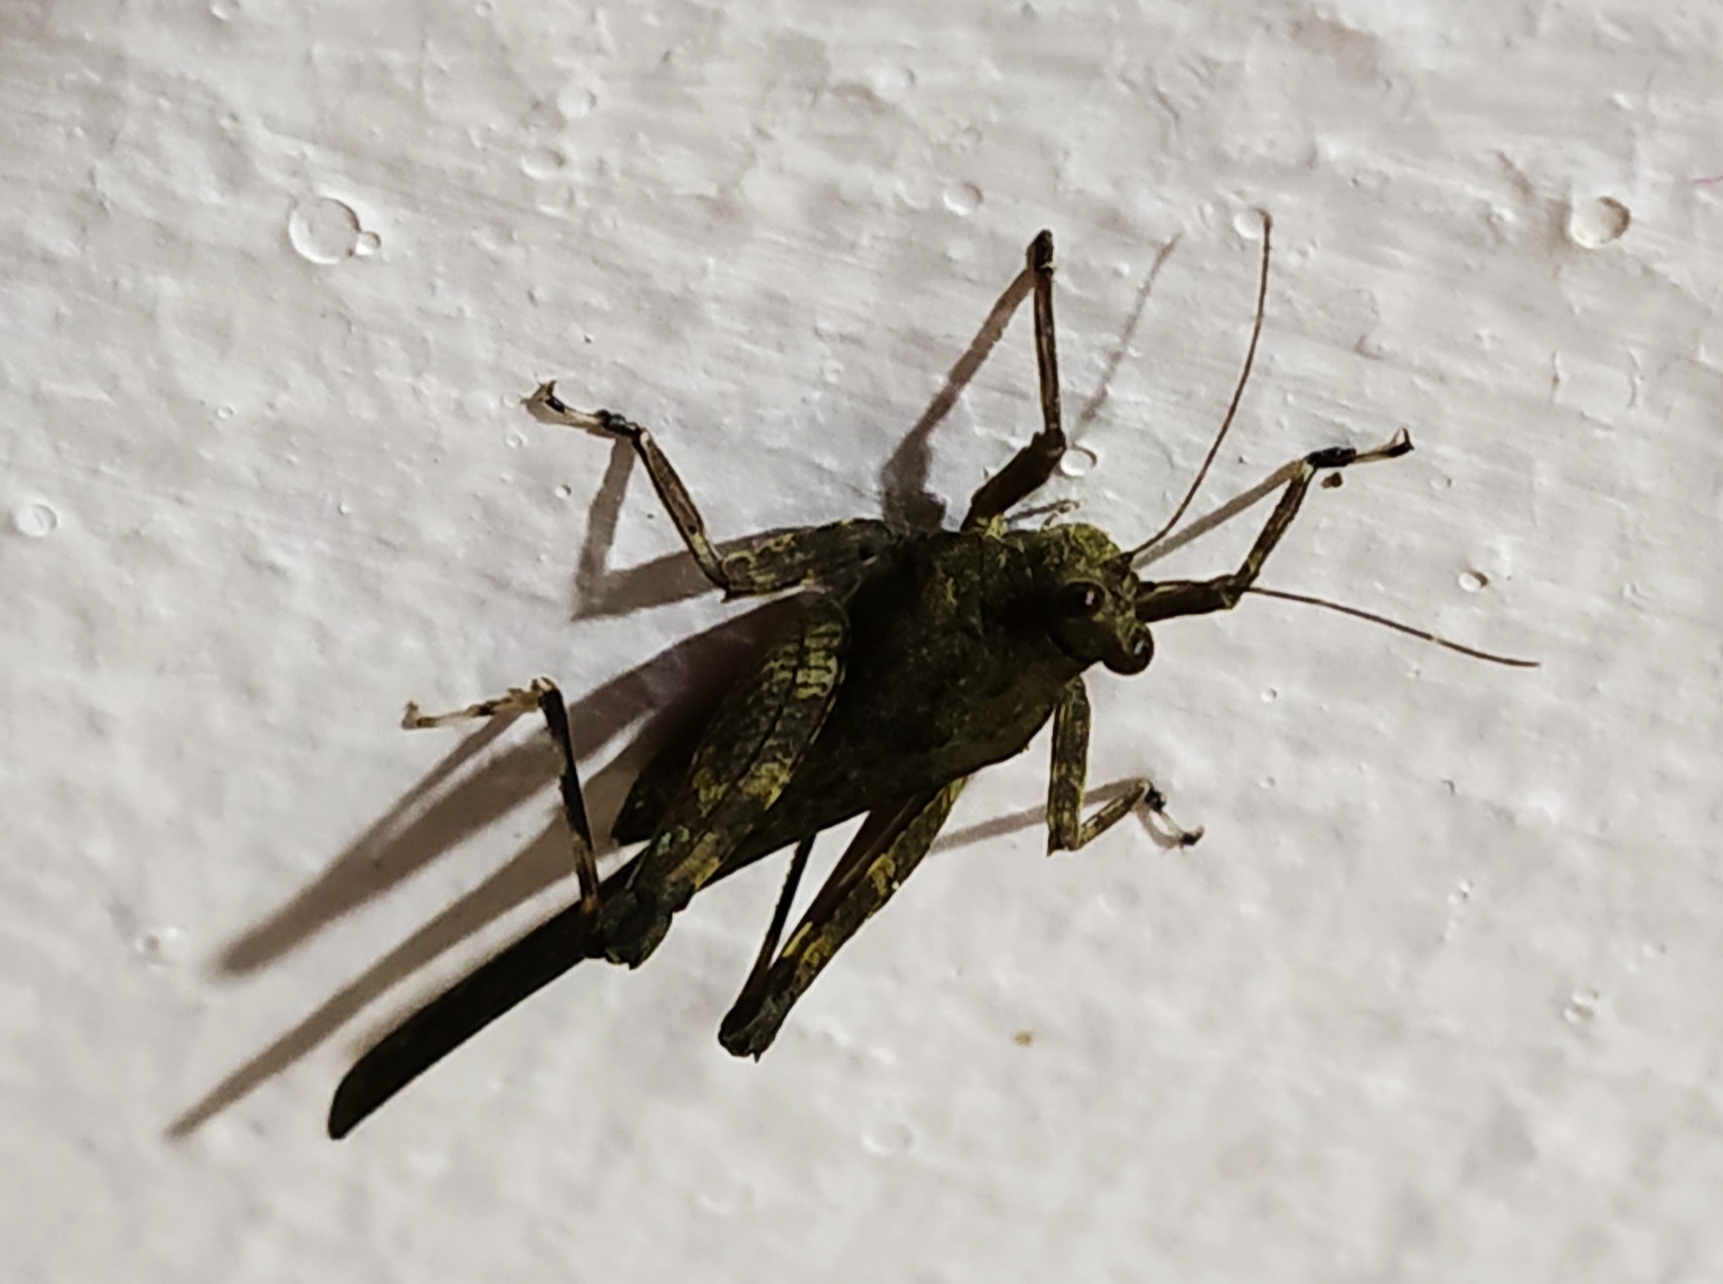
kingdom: Animalia
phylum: Arthropoda
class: Insecta
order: Orthoptera
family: Tetrigidae
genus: Xistrella
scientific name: Xistrella stylata
